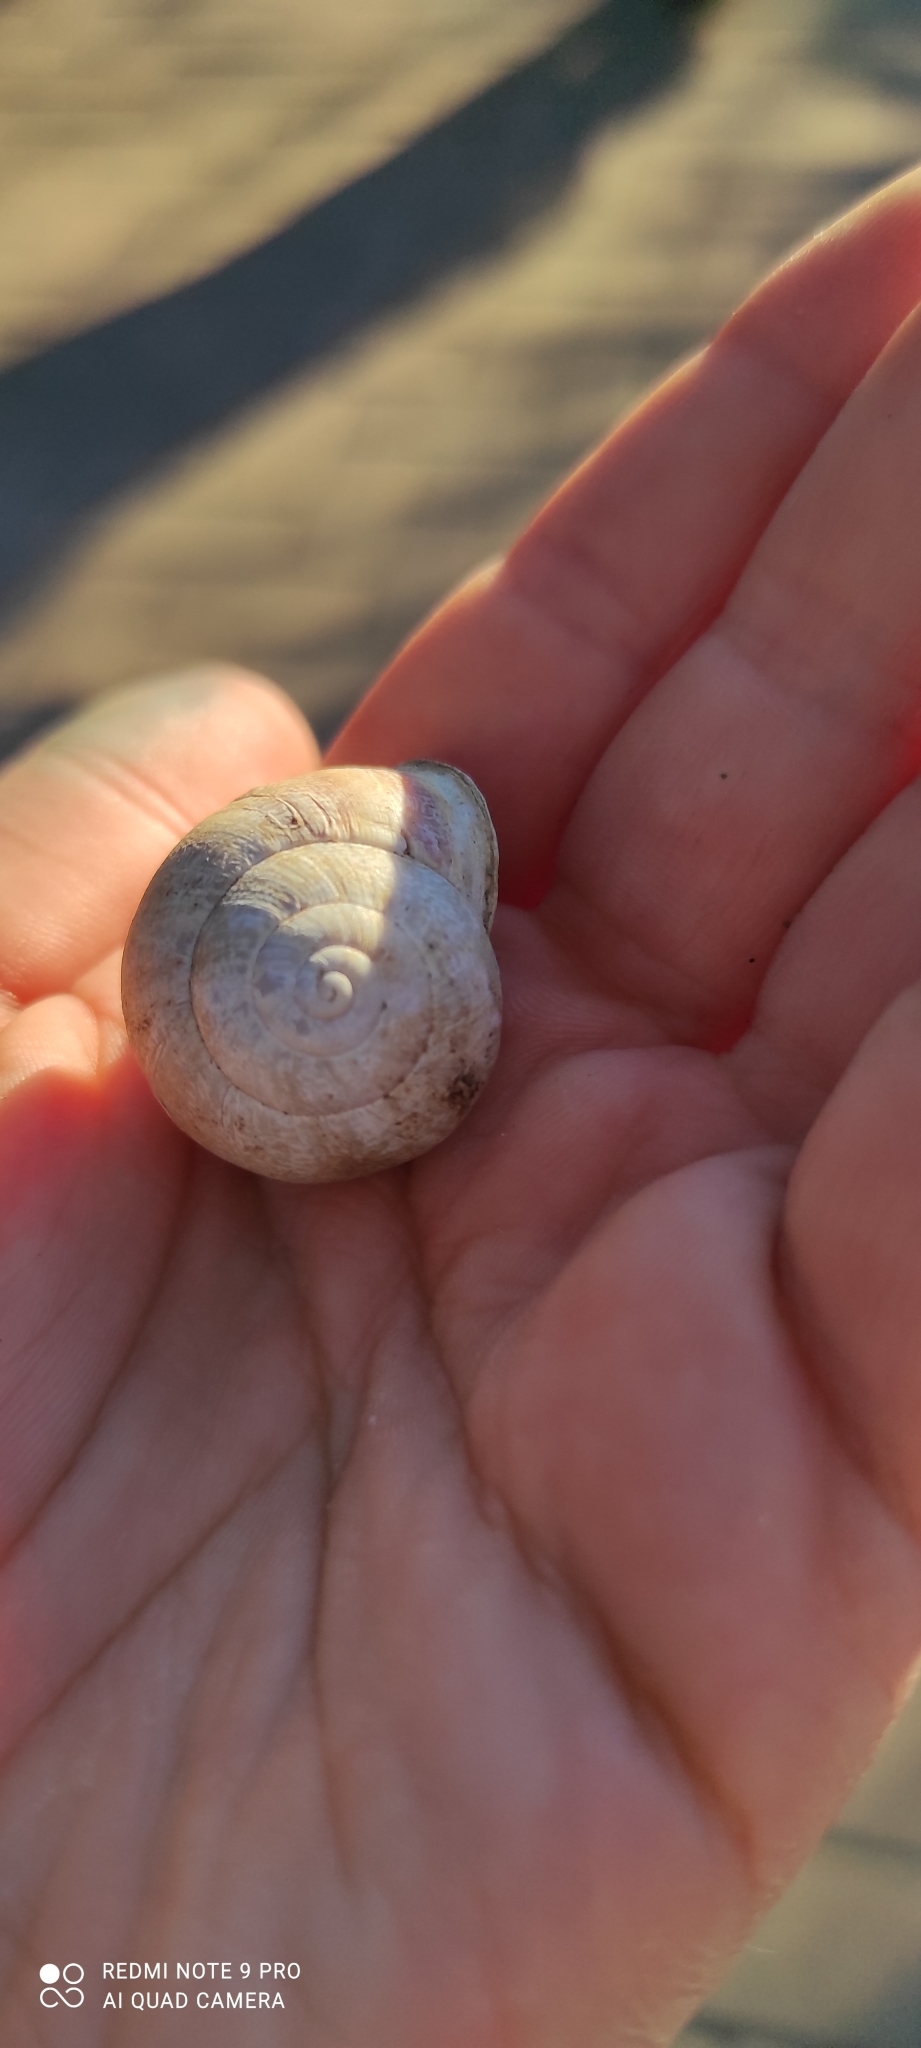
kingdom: Animalia
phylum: Mollusca
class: Gastropoda
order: Stylommatophora
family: Helicidae
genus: Eobania
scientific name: Eobania vermiculata
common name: Chocolateband snail
